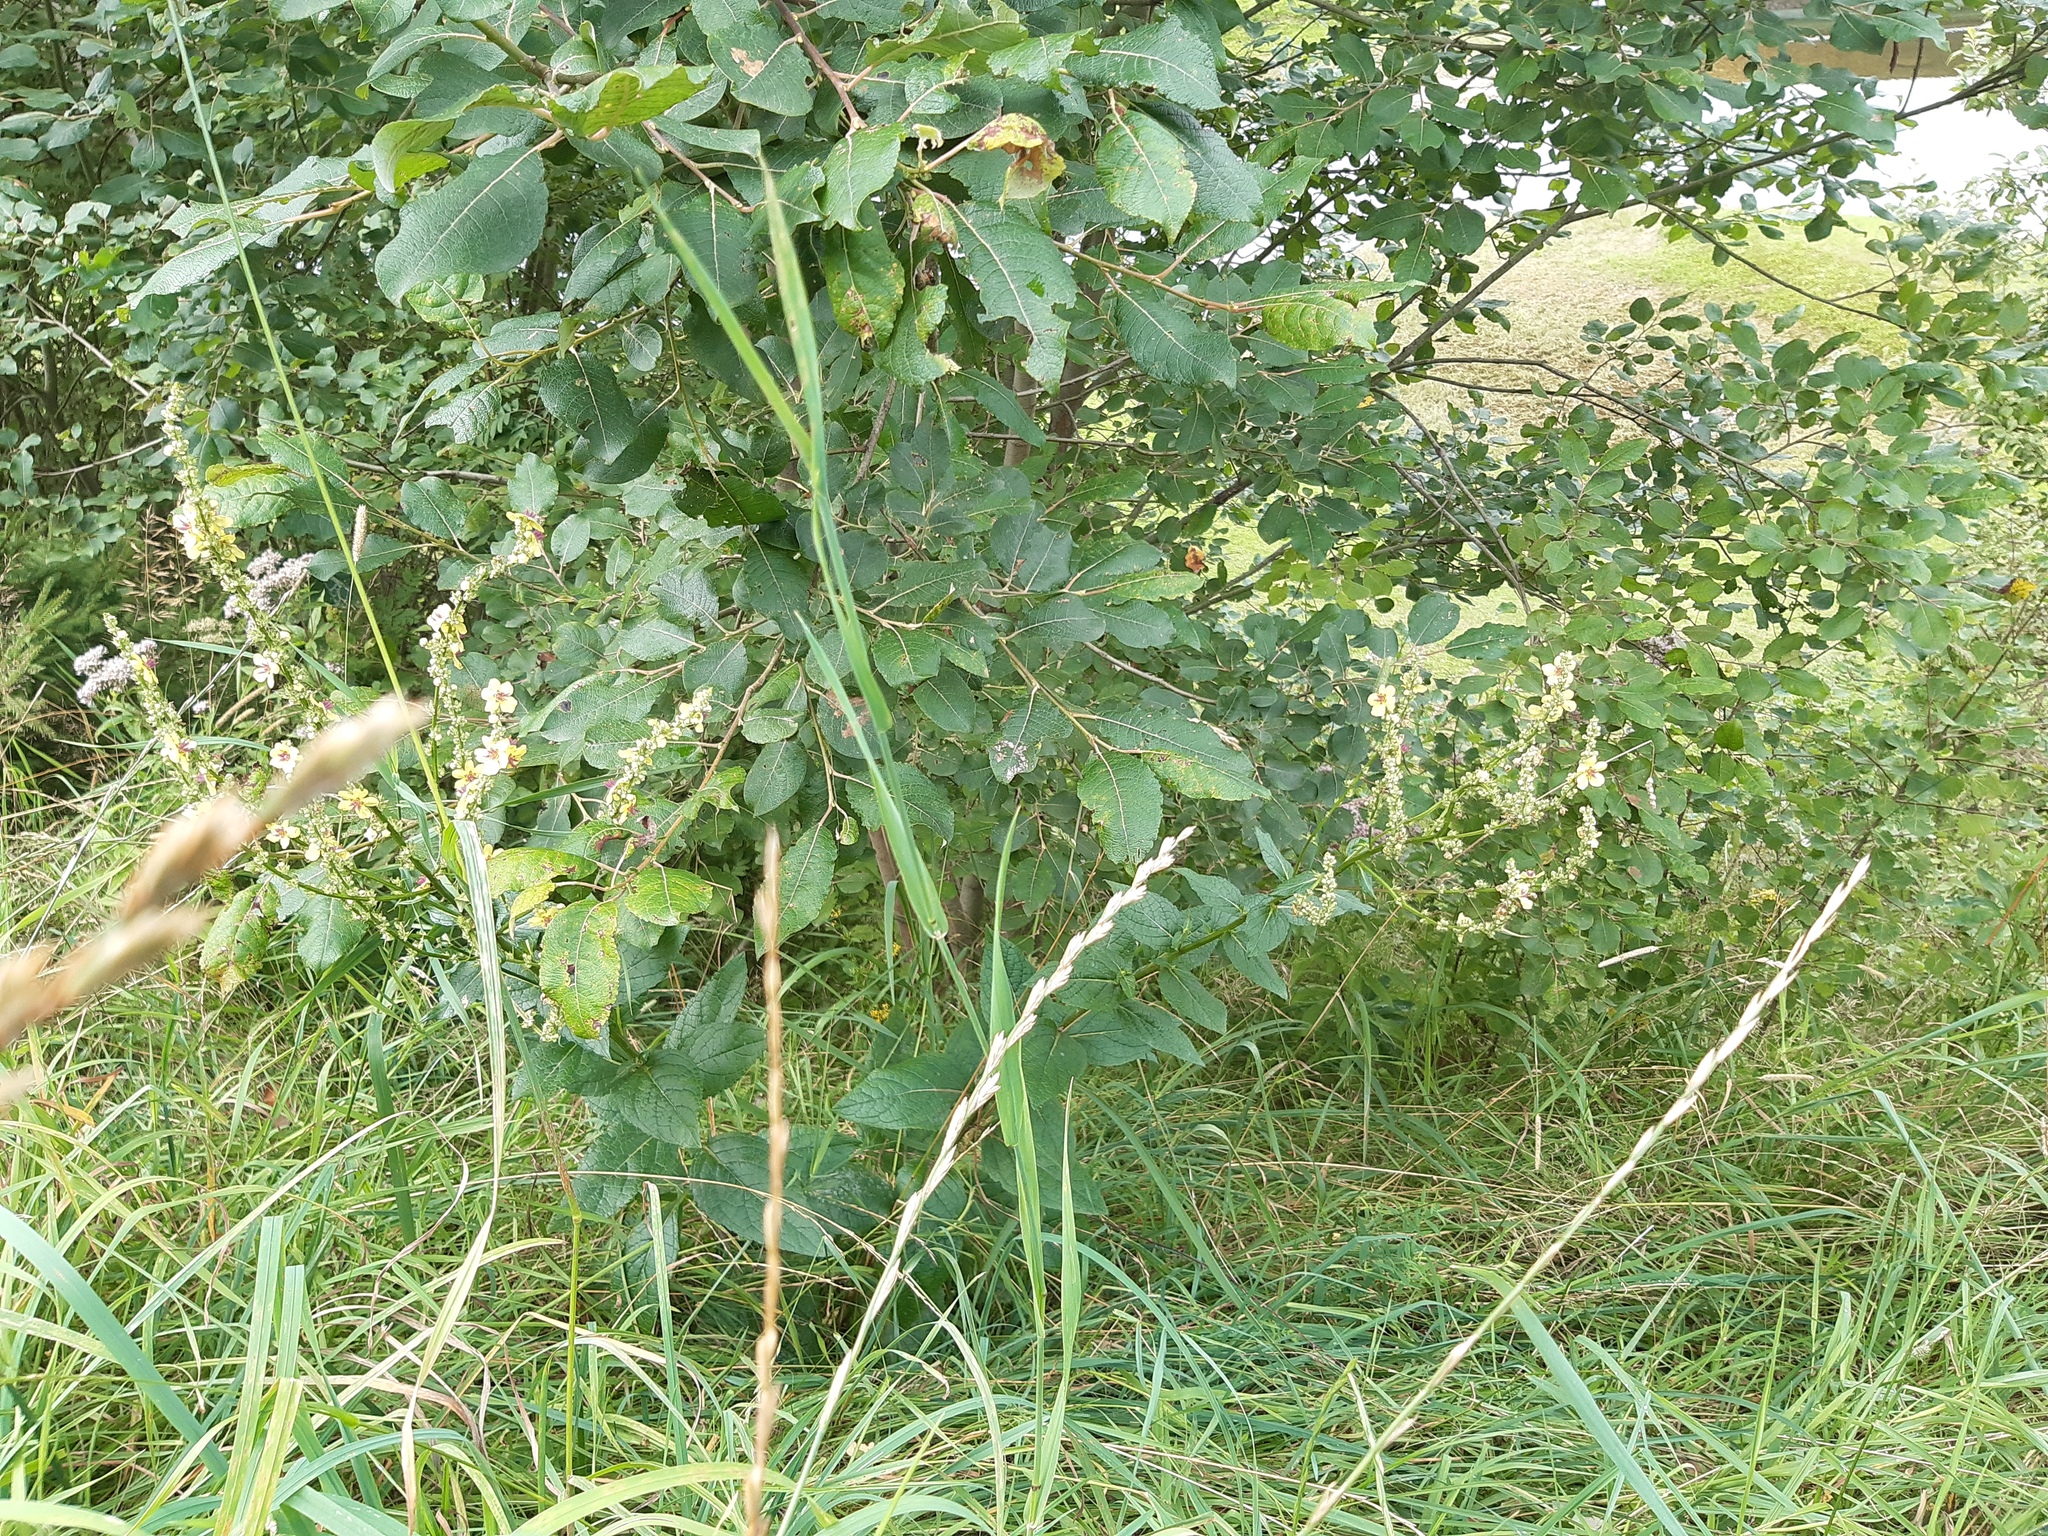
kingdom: Plantae
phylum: Tracheophyta
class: Magnoliopsida
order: Lamiales
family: Scrophulariaceae
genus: Verbascum
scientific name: Verbascum chaixii
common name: Nettle-leaved mullein
